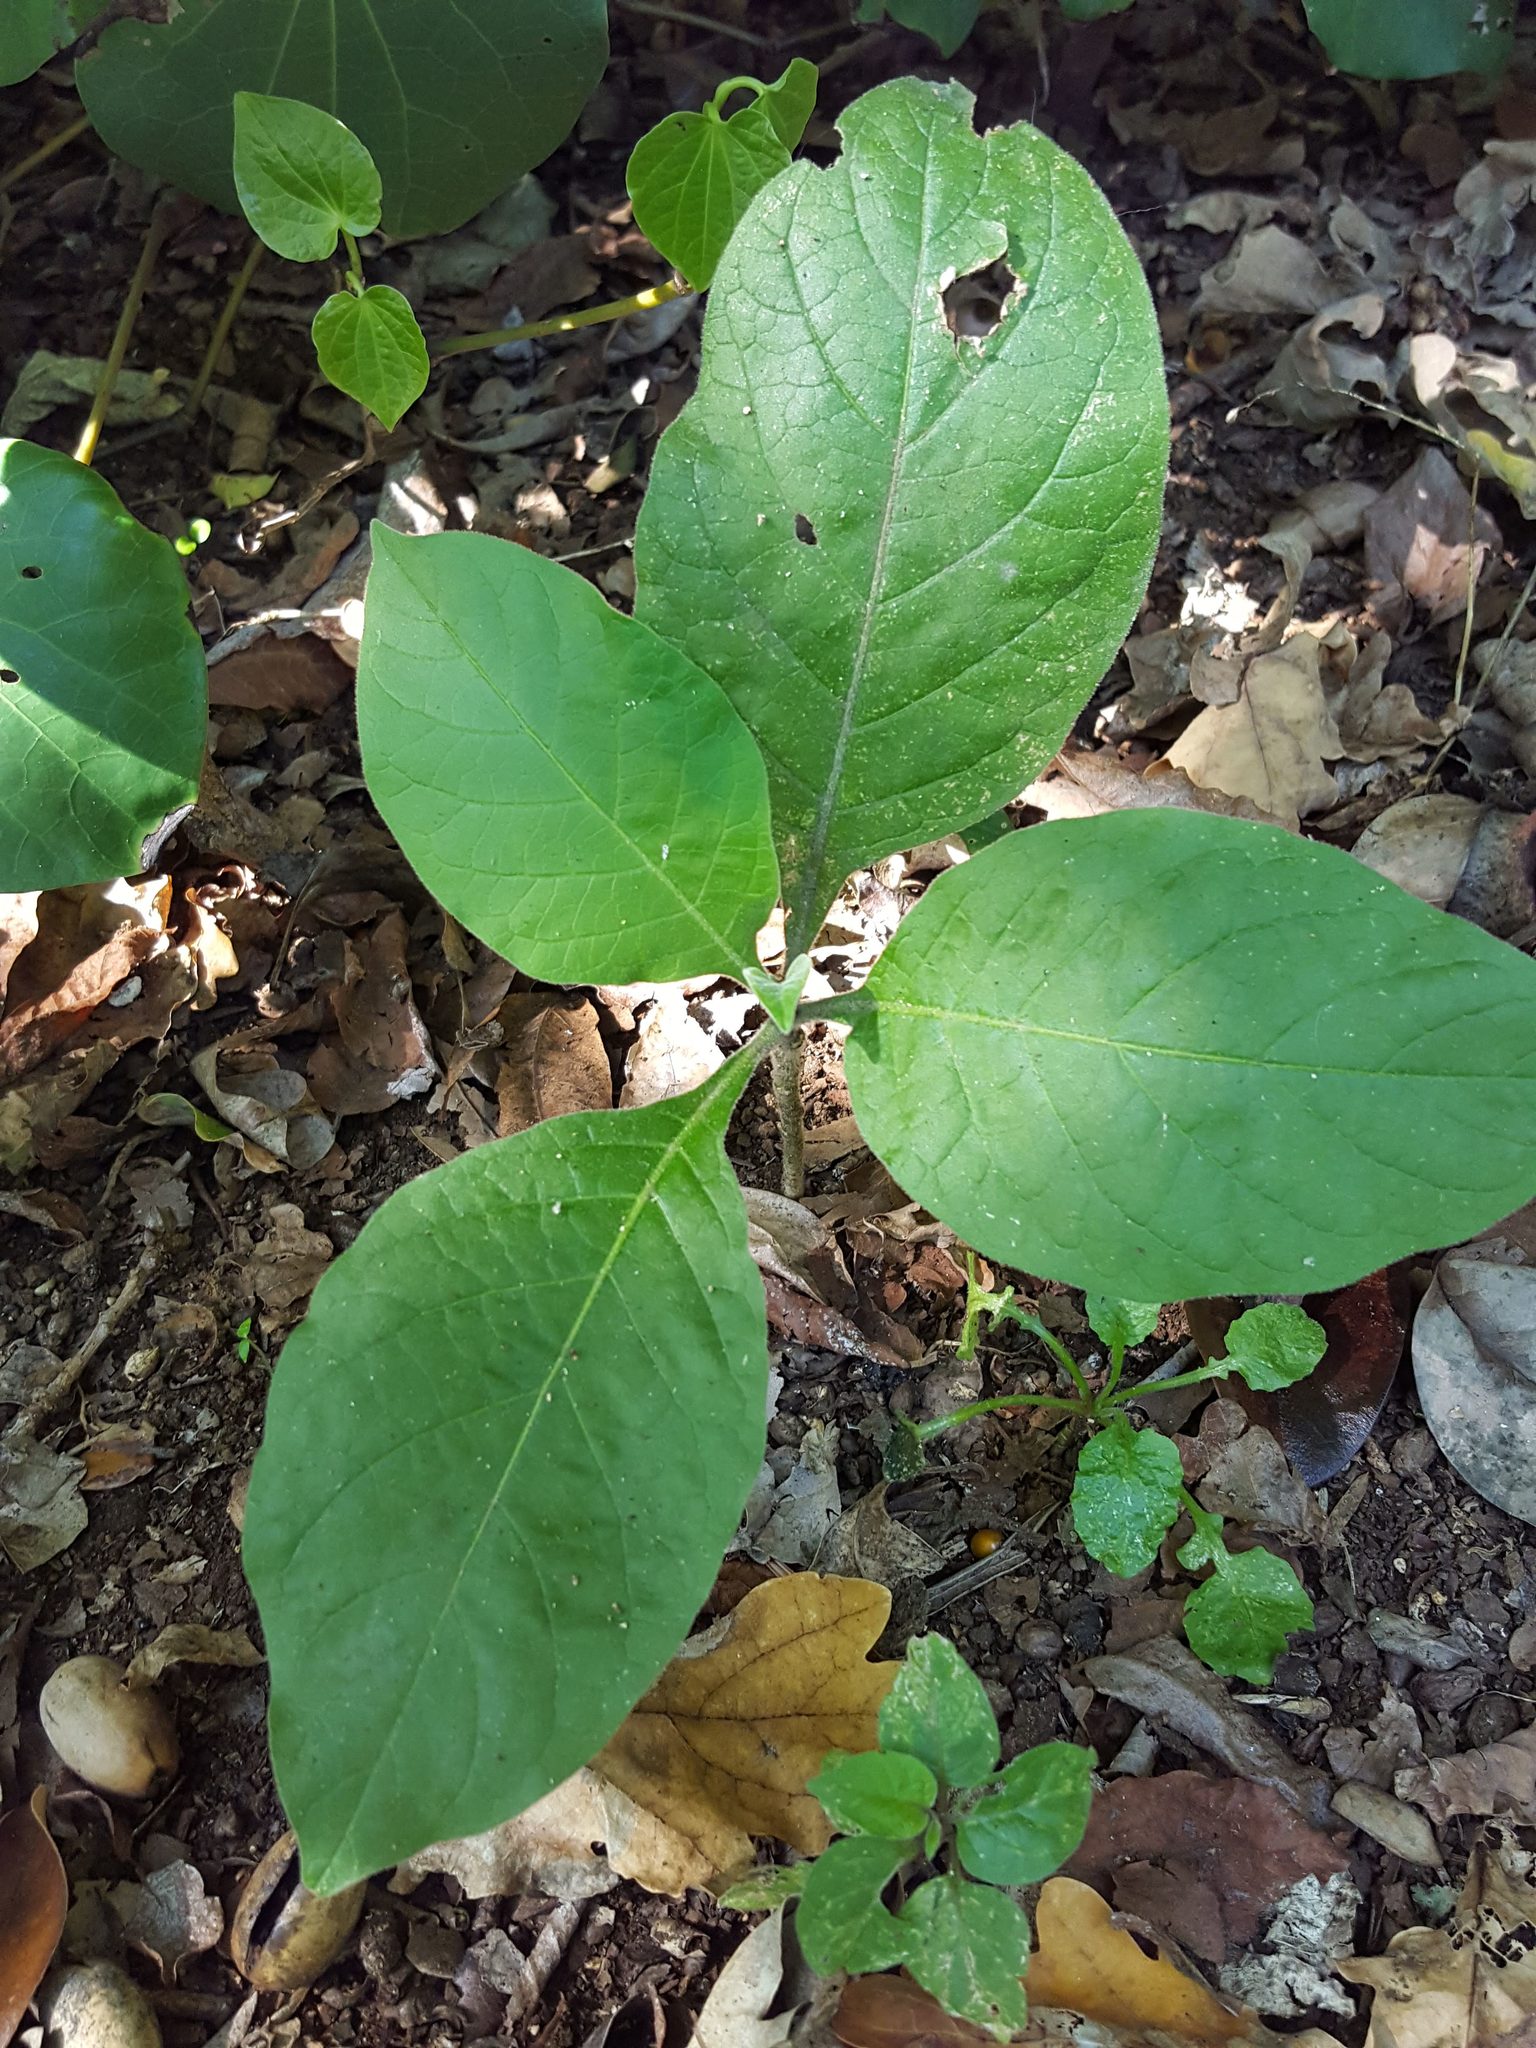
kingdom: Plantae
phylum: Tracheophyta
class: Magnoliopsida
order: Solanales
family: Solanaceae
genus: Solanum
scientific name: Solanum mauritianum
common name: Earleaf nightshade
